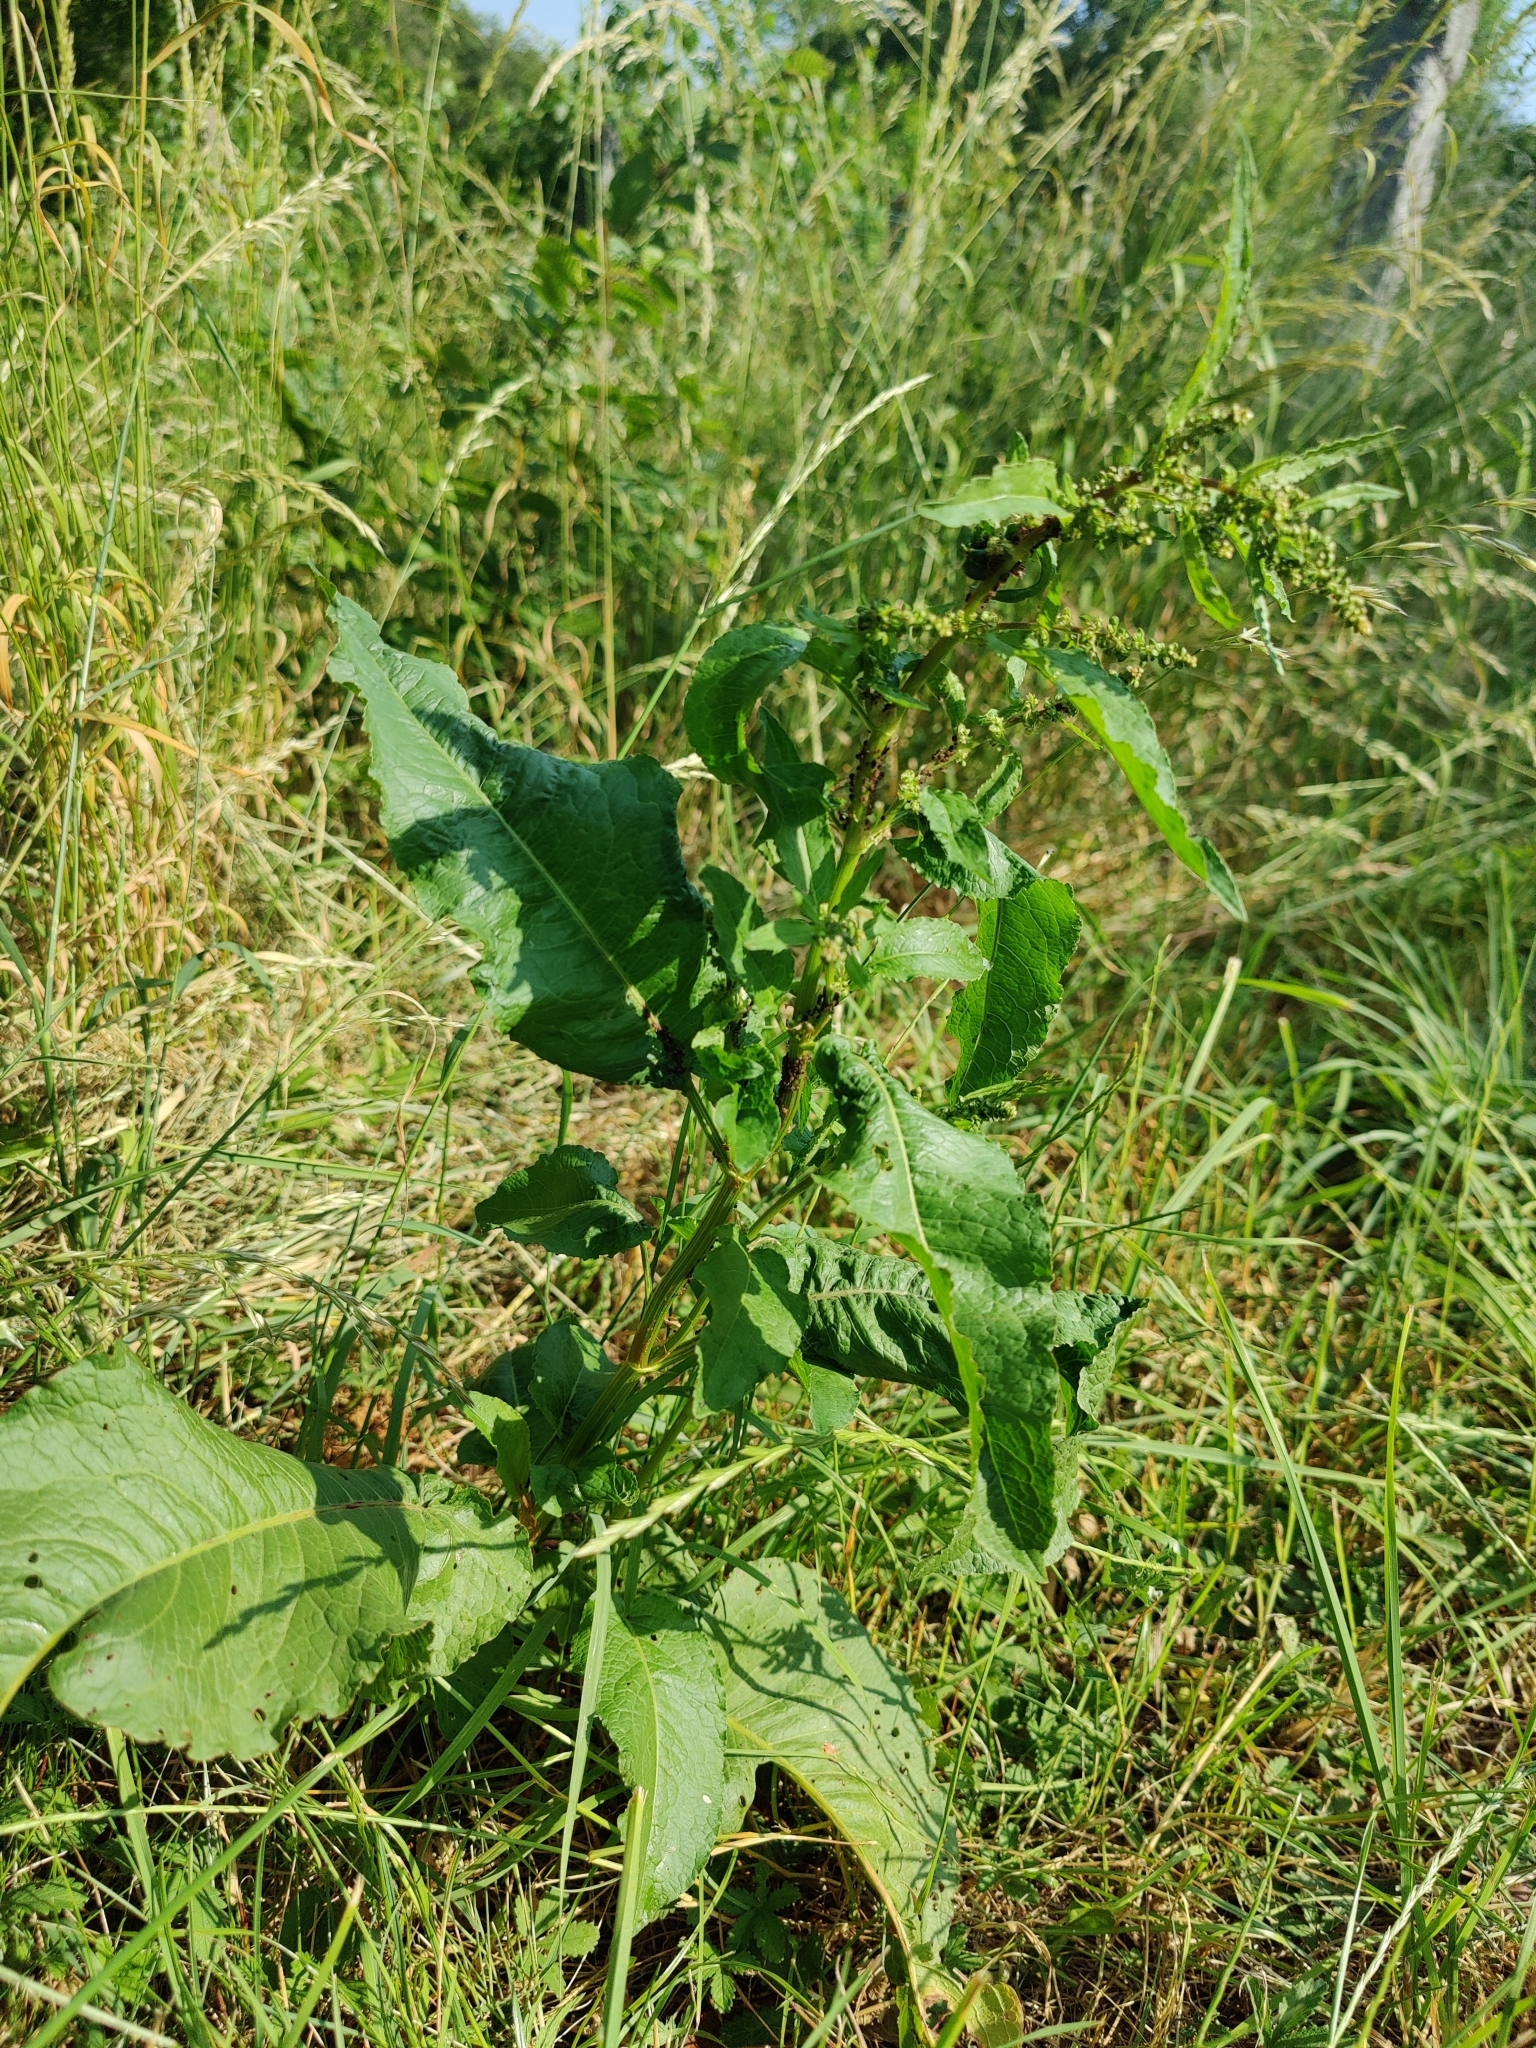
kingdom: Plantae
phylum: Tracheophyta
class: Magnoliopsida
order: Caryophyllales
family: Polygonaceae
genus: Rumex
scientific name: Rumex obtusifolius
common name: Bitter dock
